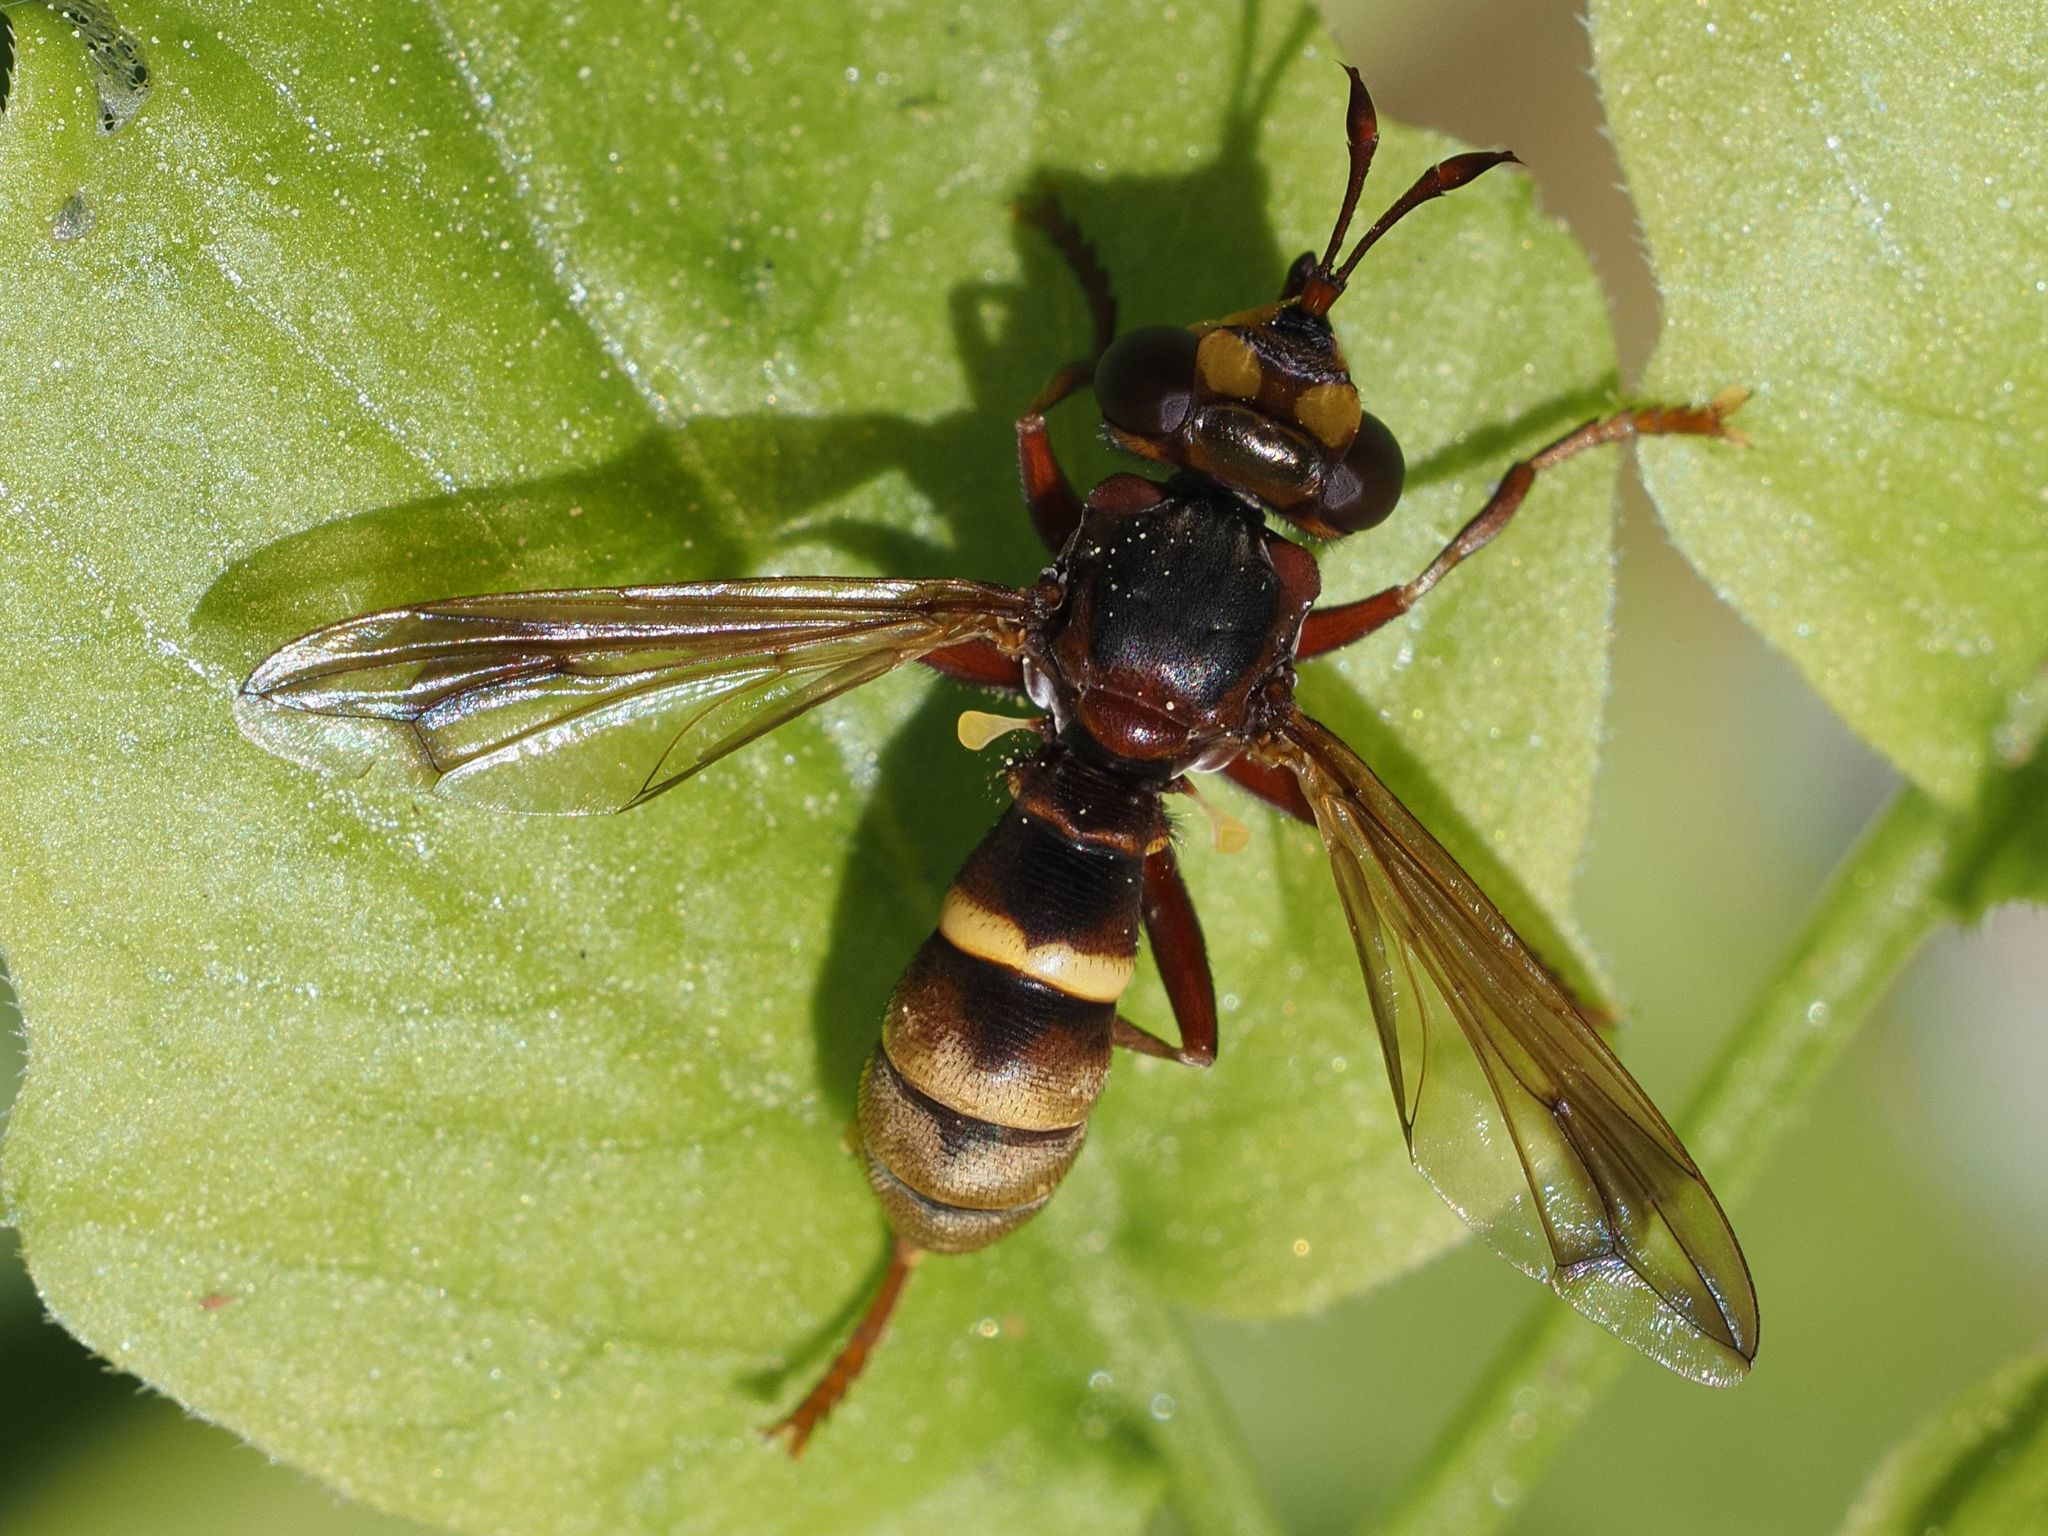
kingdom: Animalia
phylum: Arthropoda
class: Insecta
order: Diptera
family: Conopidae
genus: Conops
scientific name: Conops vesicularis
